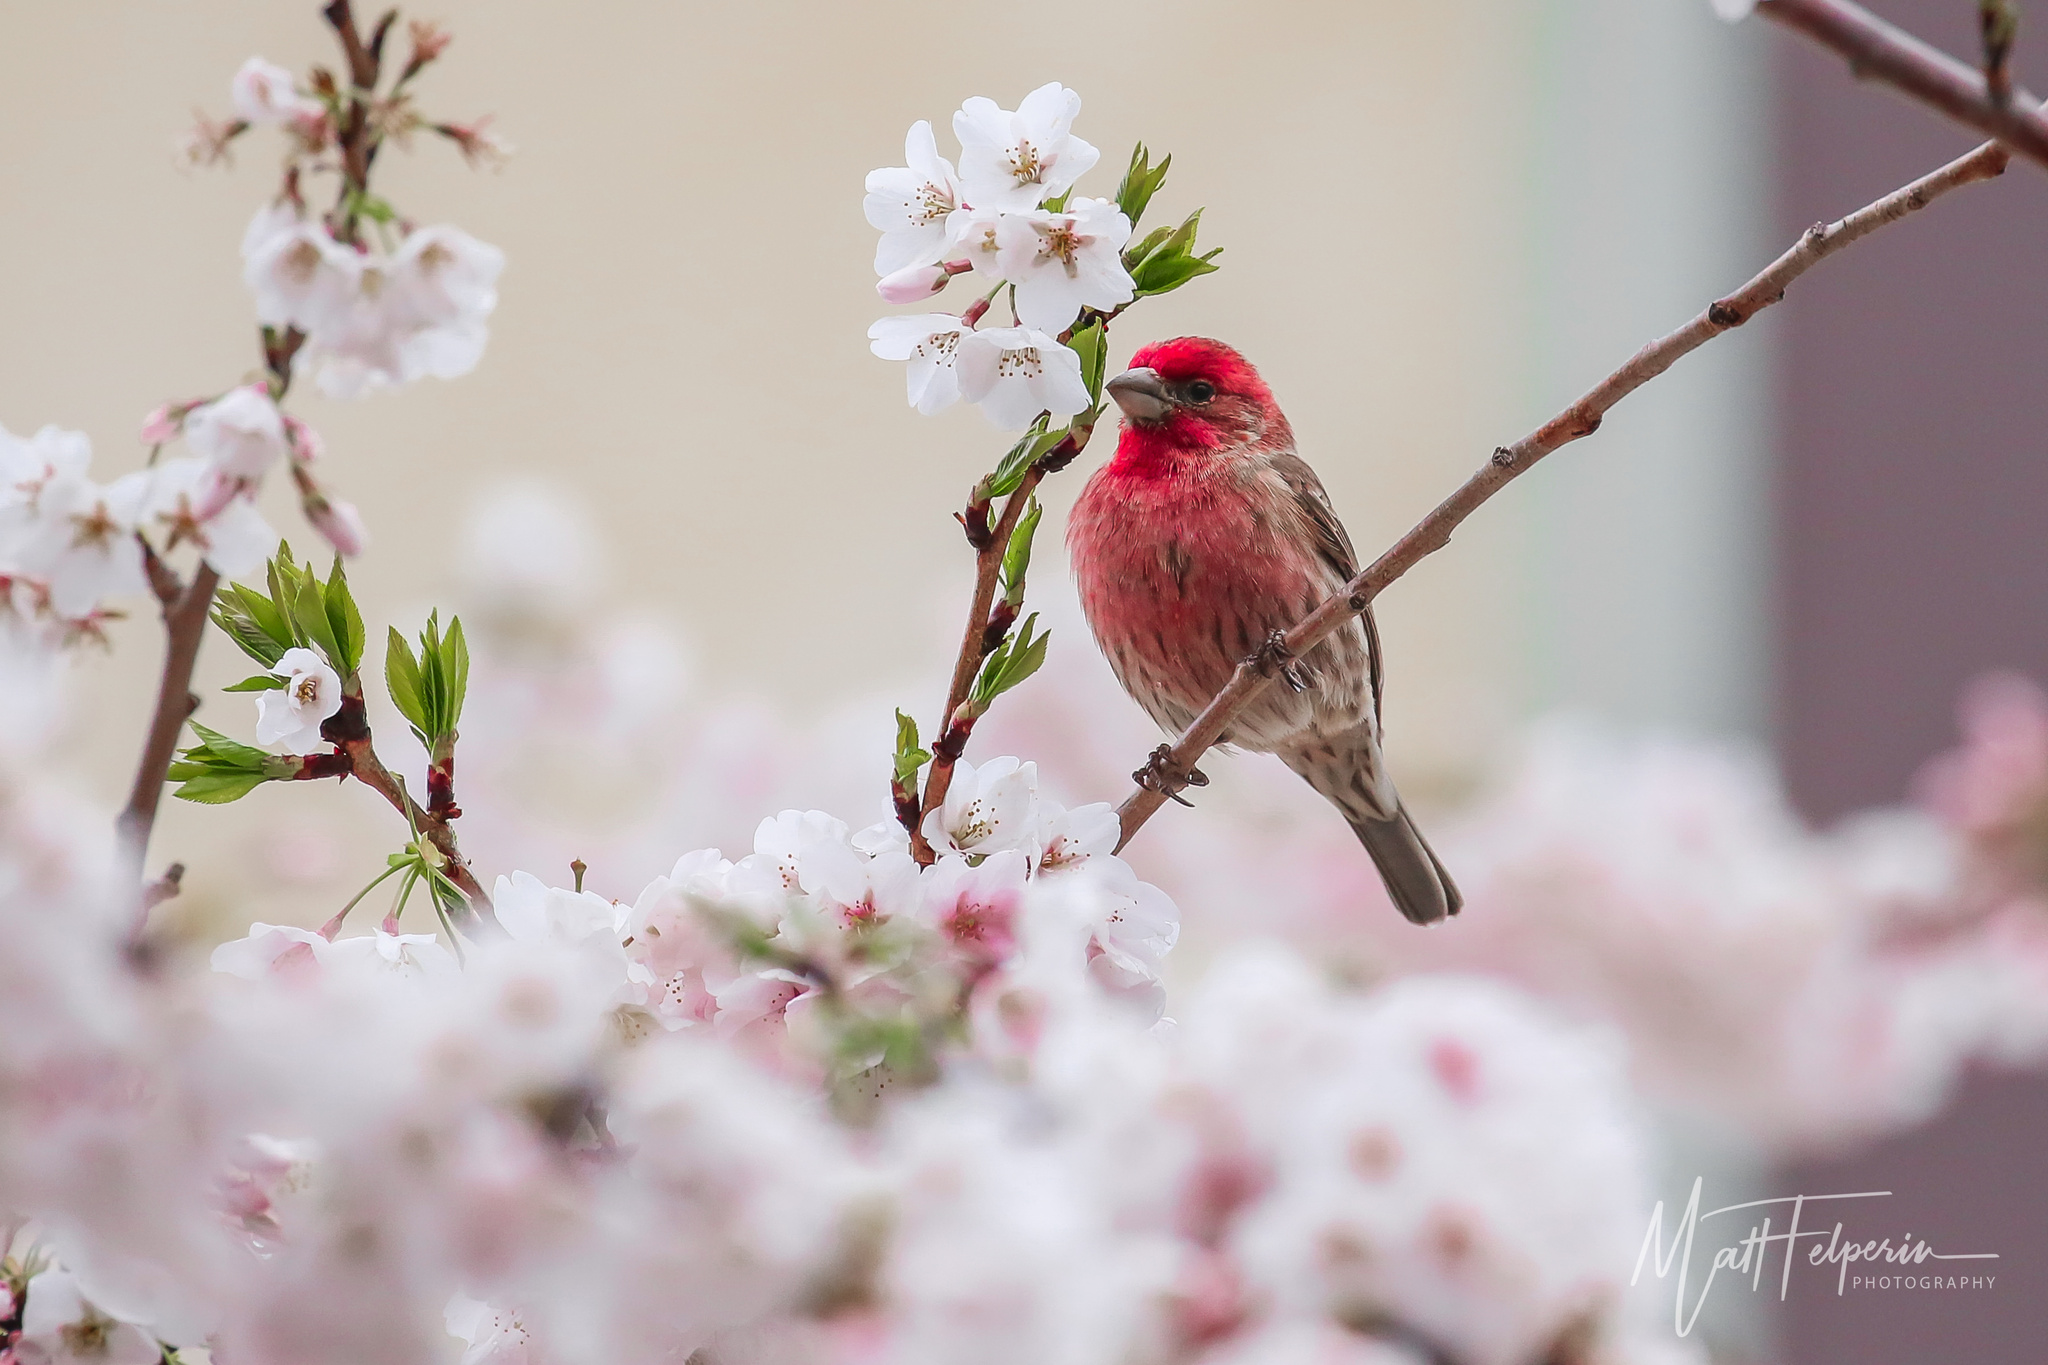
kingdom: Animalia
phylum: Chordata
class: Aves
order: Passeriformes
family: Fringillidae
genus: Haemorhous
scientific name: Haemorhous mexicanus
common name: House finch
